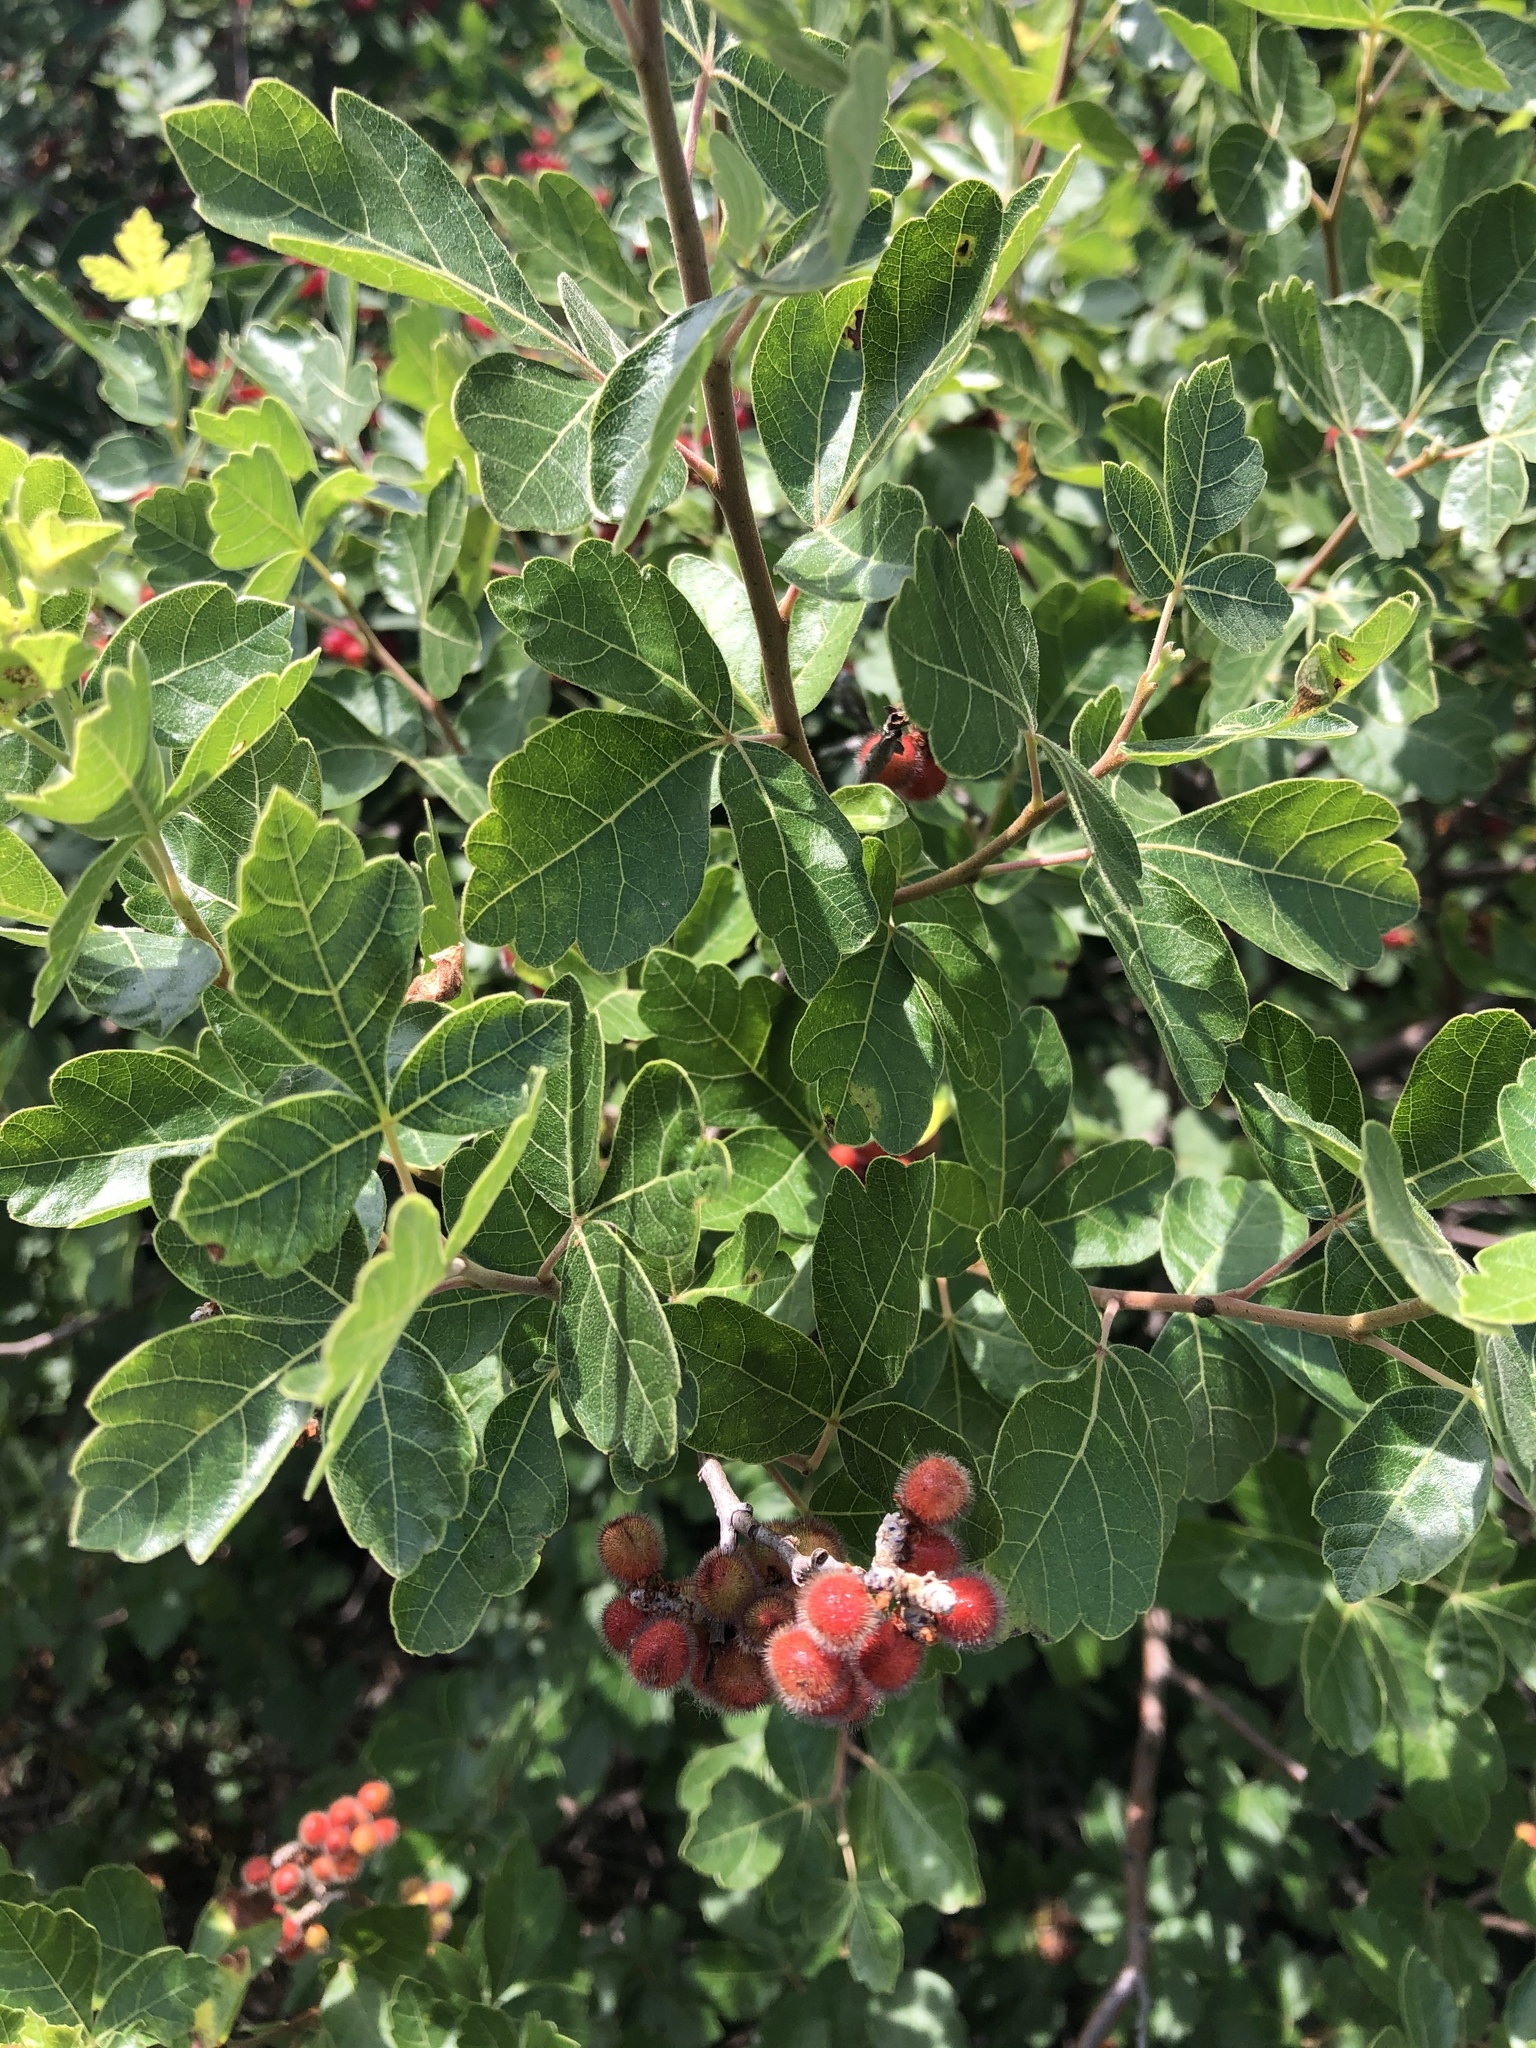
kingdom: Plantae
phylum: Tracheophyta
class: Magnoliopsida
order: Sapindales
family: Anacardiaceae
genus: Rhus
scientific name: Rhus aromatica
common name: Aromatic sumac
